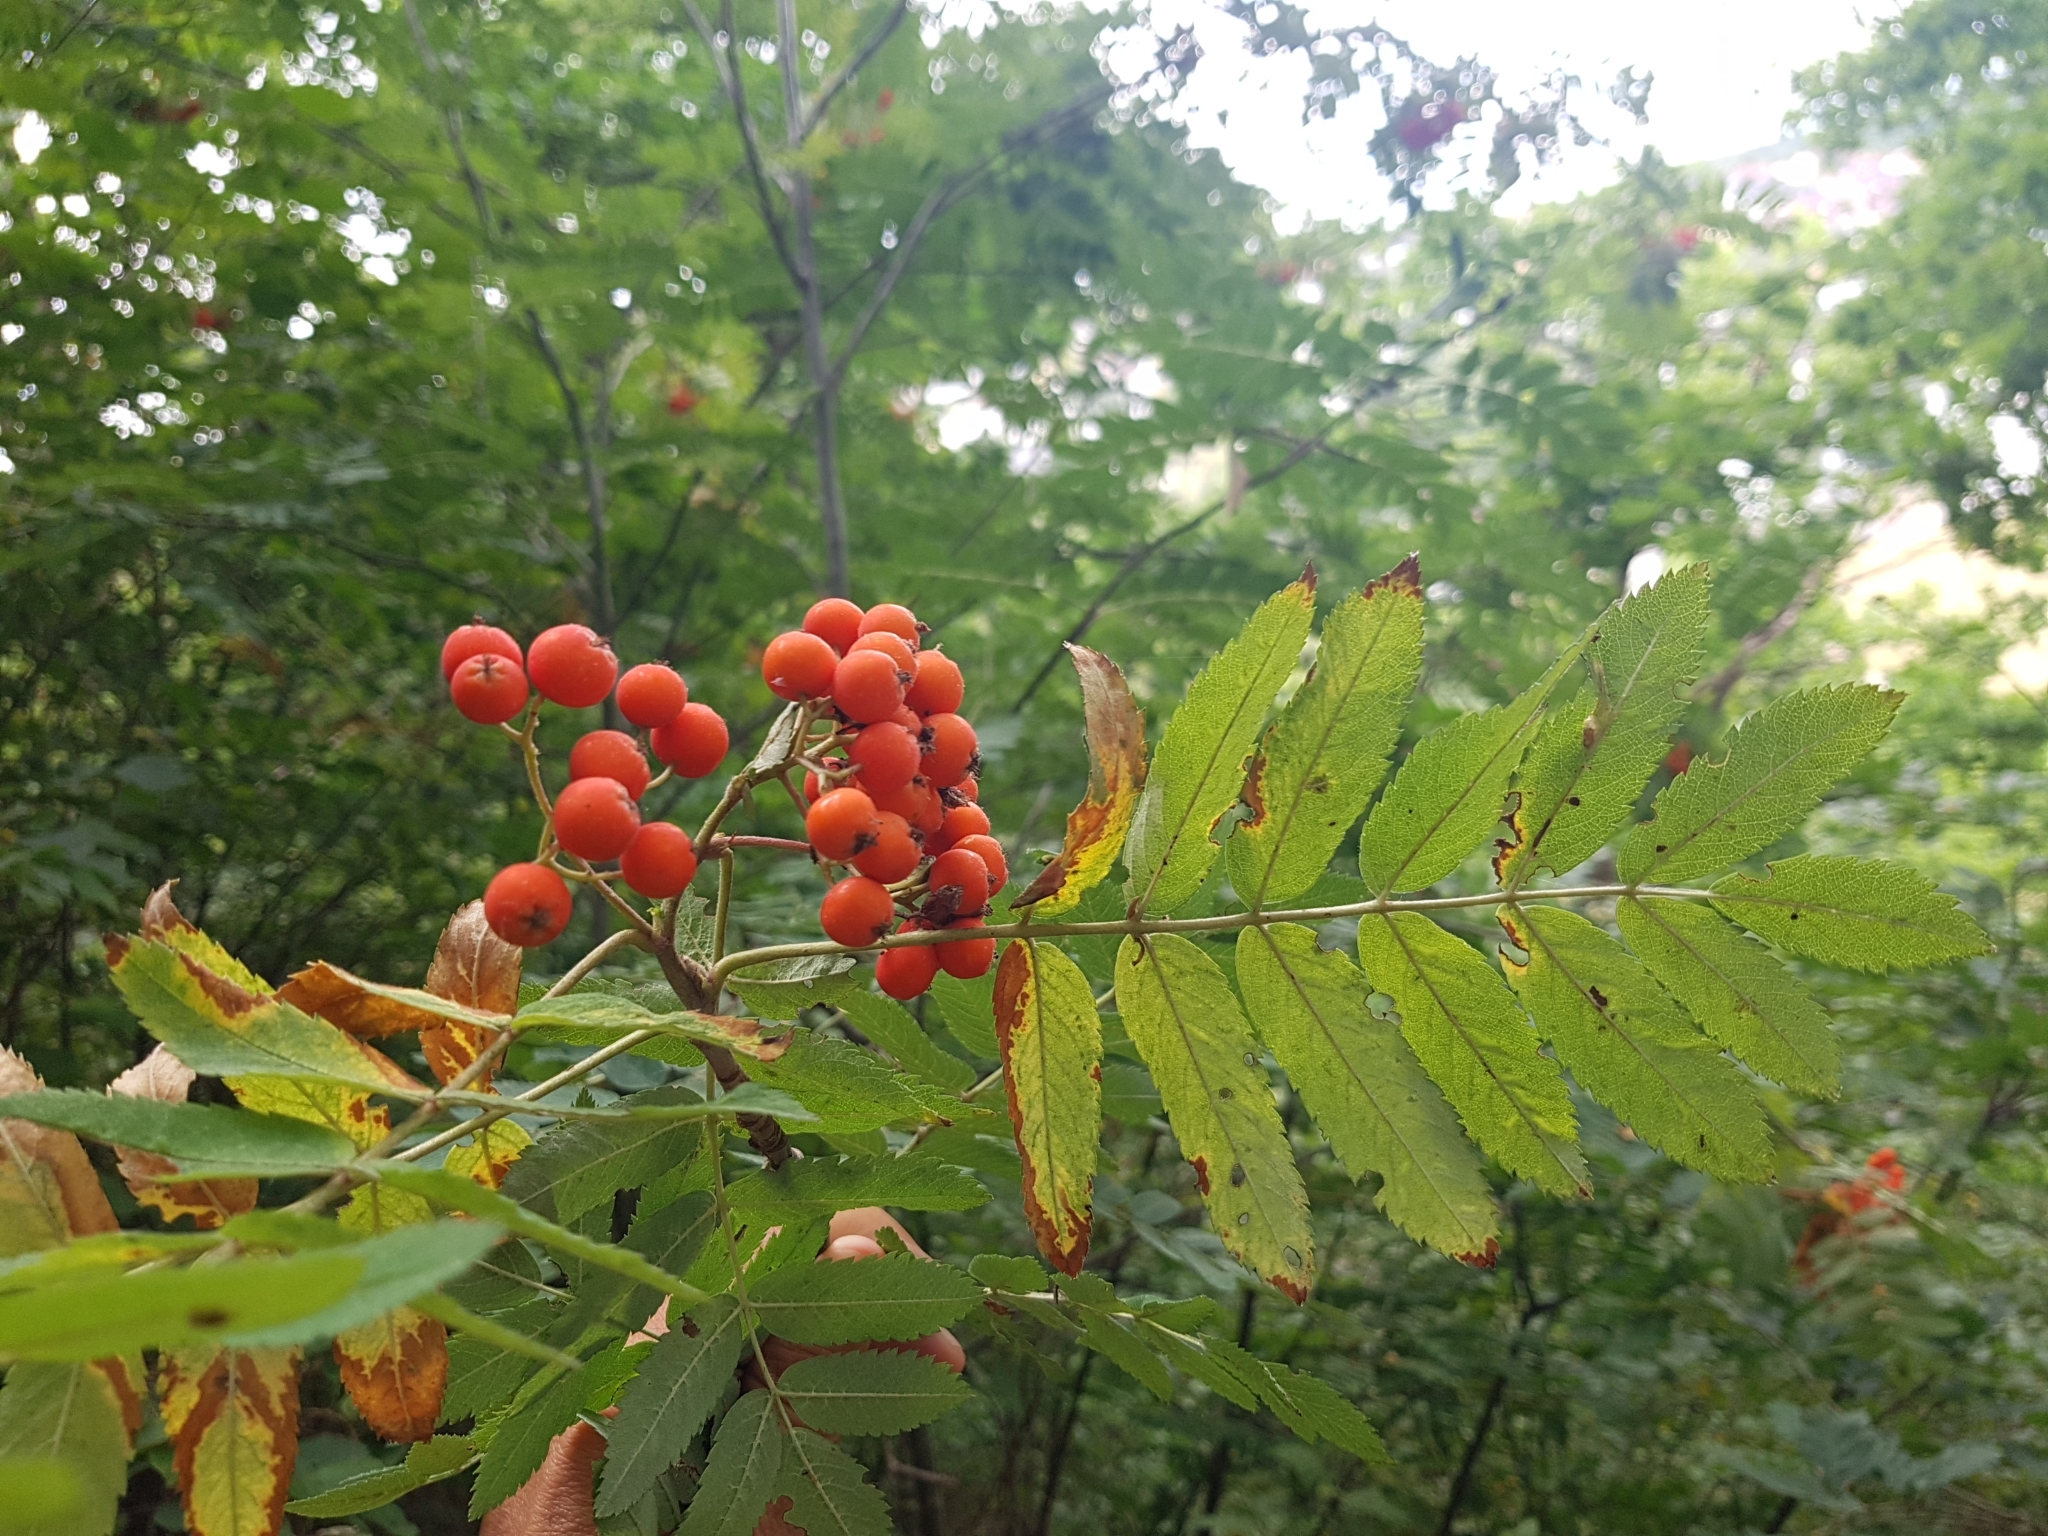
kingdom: Plantae
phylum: Tracheophyta
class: Magnoliopsida
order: Rosales
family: Rosaceae
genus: Sorbus
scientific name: Sorbus aucuparia
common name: Rowan
